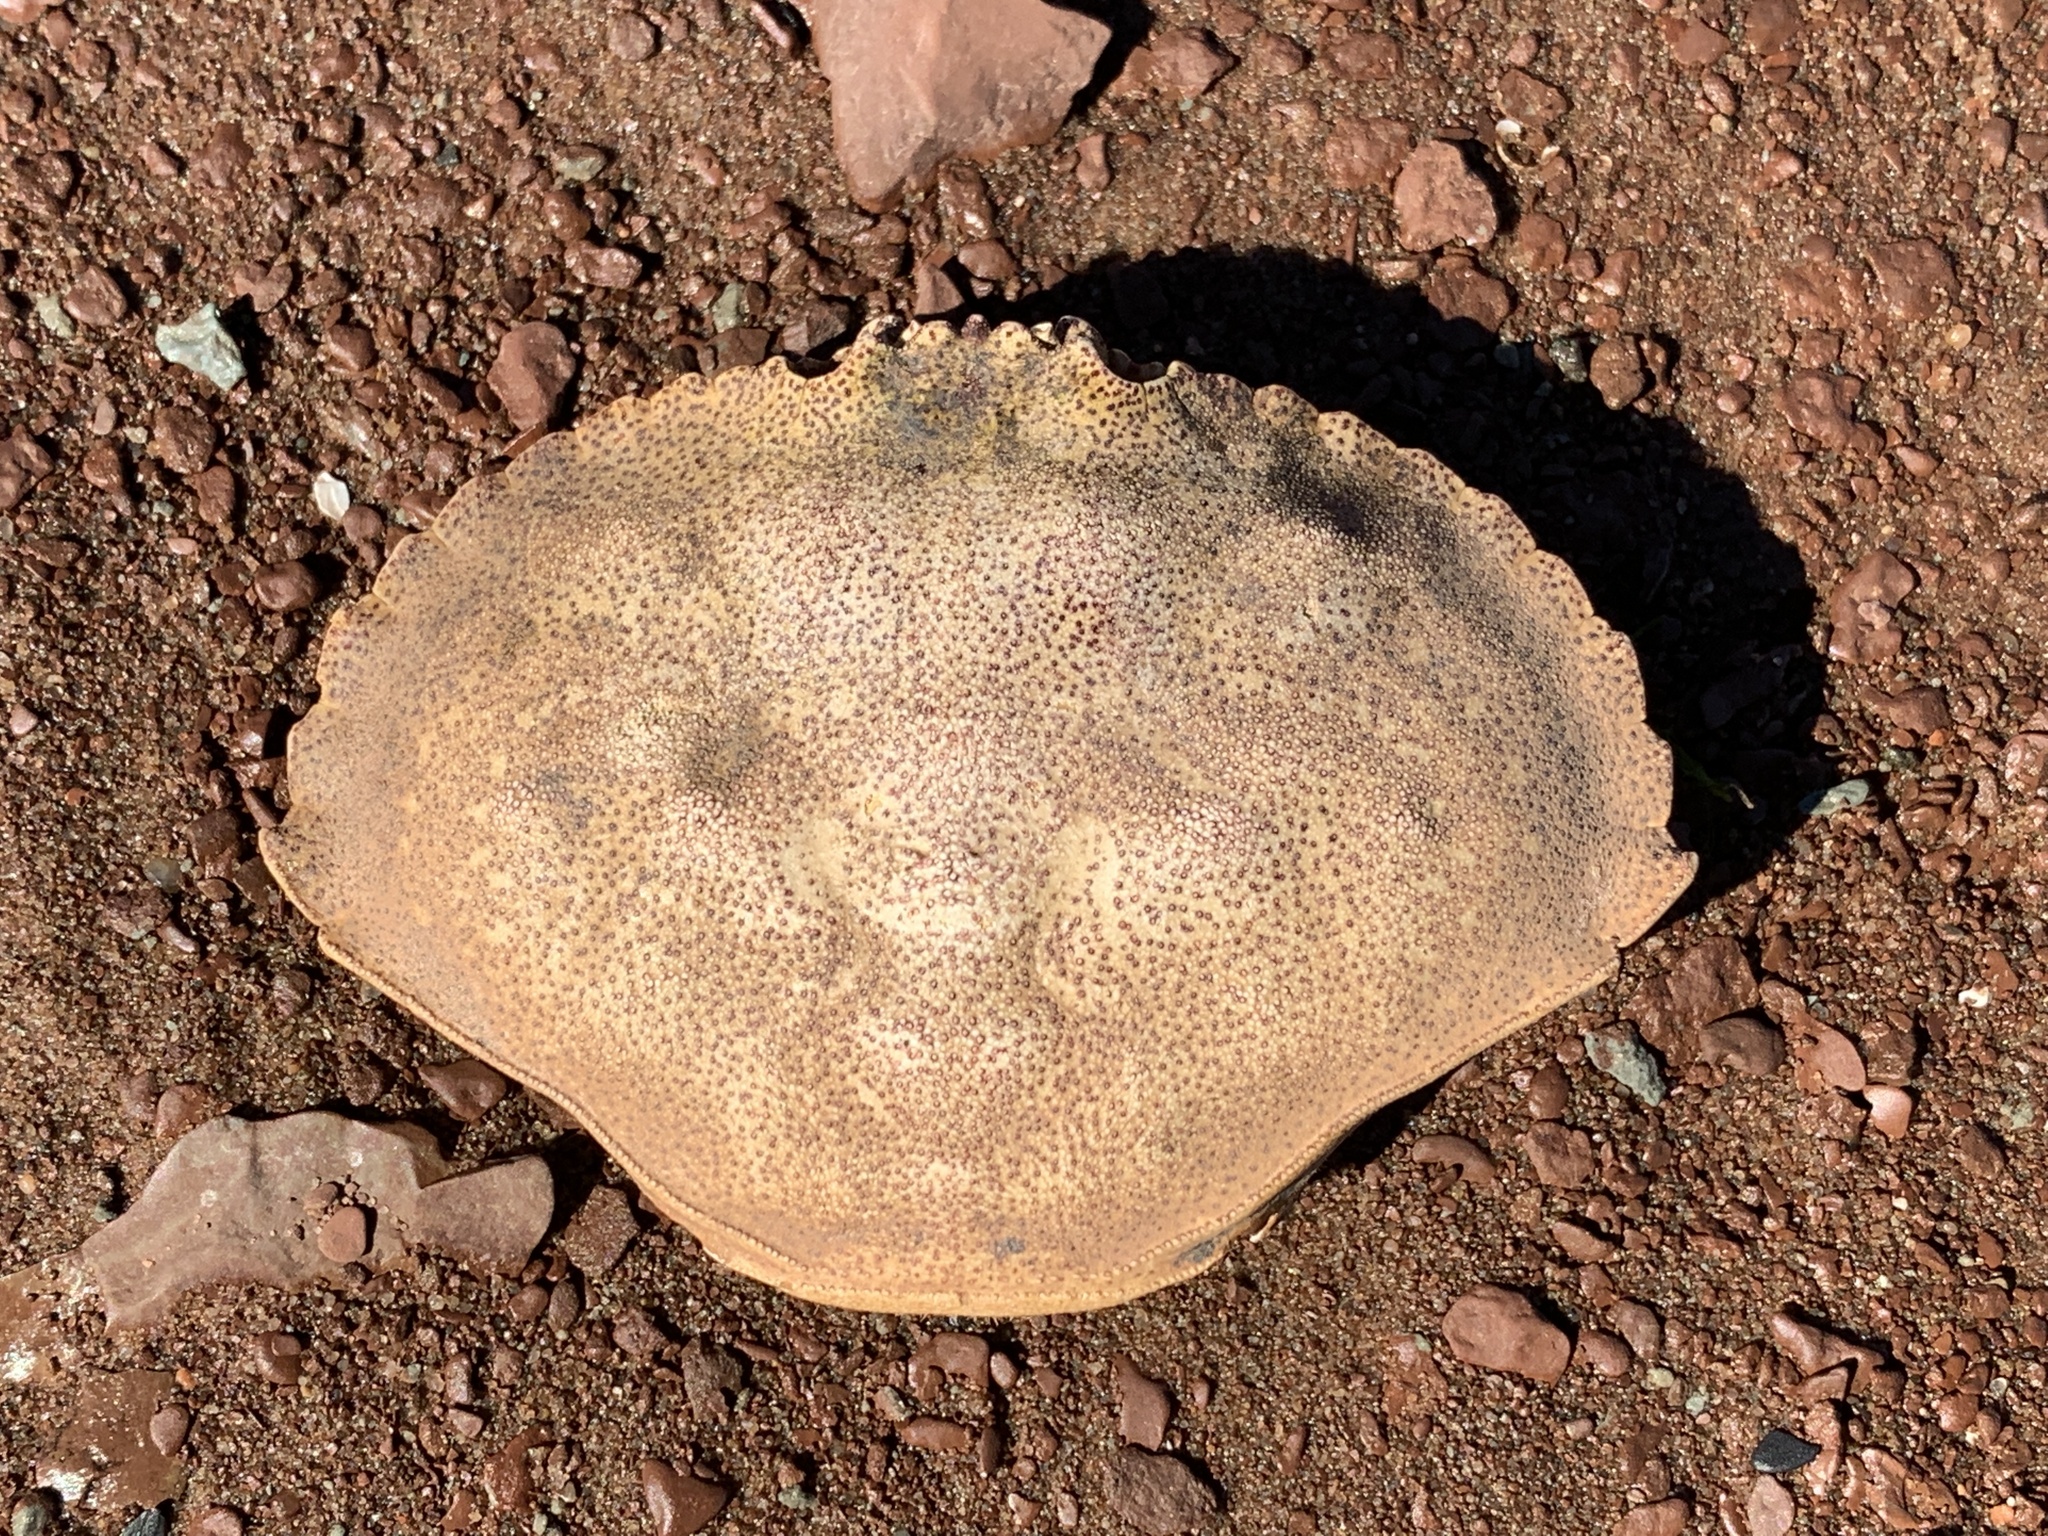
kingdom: Animalia
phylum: Arthropoda
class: Malacostraca
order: Decapoda
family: Cancridae
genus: Cancer
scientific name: Cancer irroratus
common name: Atlantic rock crab
